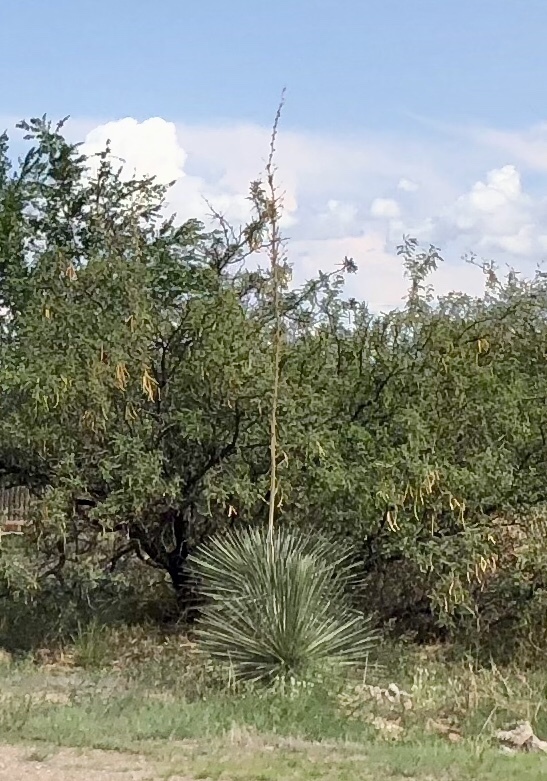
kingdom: Plantae
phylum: Tracheophyta
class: Liliopsida
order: Asparagales
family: Asparagaceae
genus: Yucca
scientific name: Yucca elata
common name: Palmella
